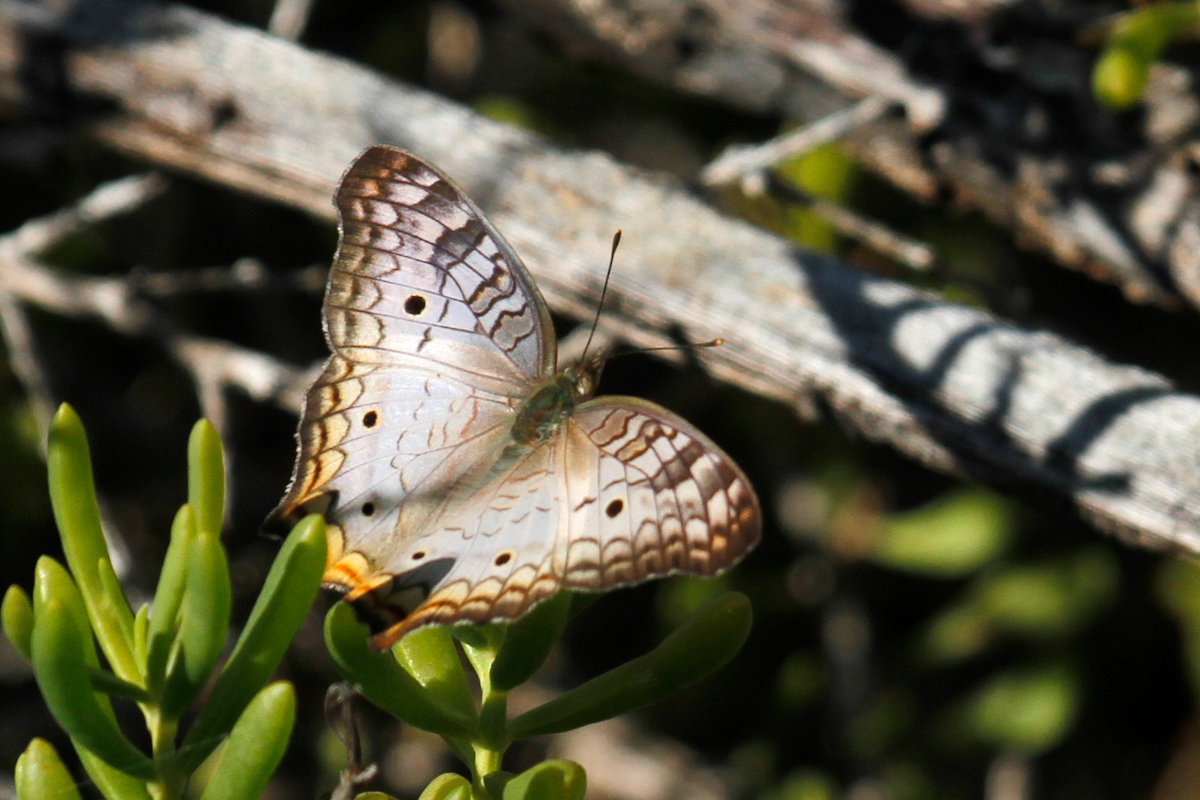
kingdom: Animalia
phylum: Arthropoda
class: Insecta
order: Lepidoptera
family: Nymphalidae
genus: Anartia
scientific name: Anartia jatrophae
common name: White peacock
